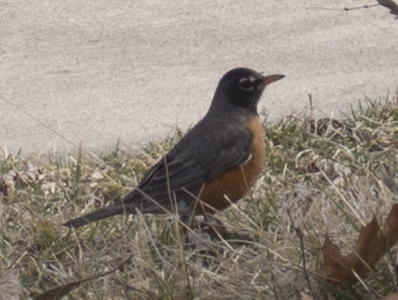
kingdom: Animalia
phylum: Chordata
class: Aves
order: Passeriformes
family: Turdidae
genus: Turdus
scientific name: Turdus migratorius
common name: American robin
